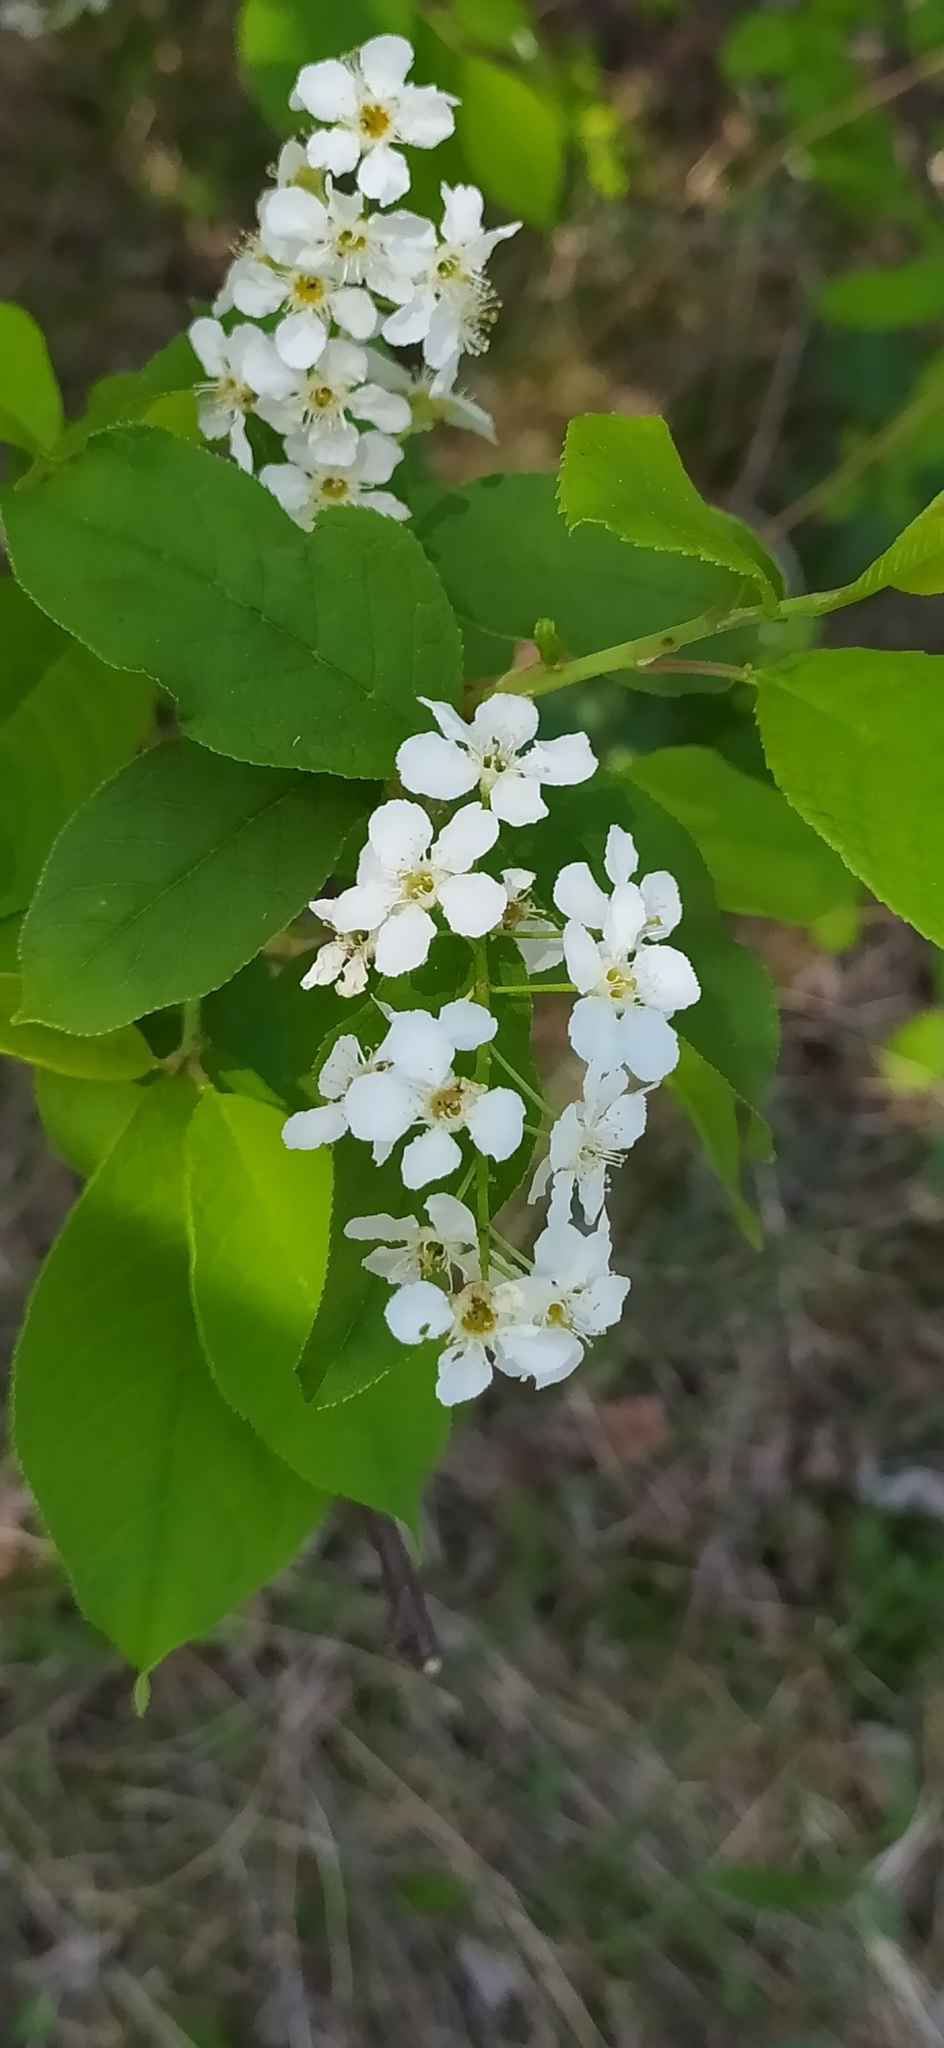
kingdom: Plantae
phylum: Tracheophyta
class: Magnoliopsida
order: Rosales
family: Rosaceae
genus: Prunus
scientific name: Prunus padus
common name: Bird cherry
